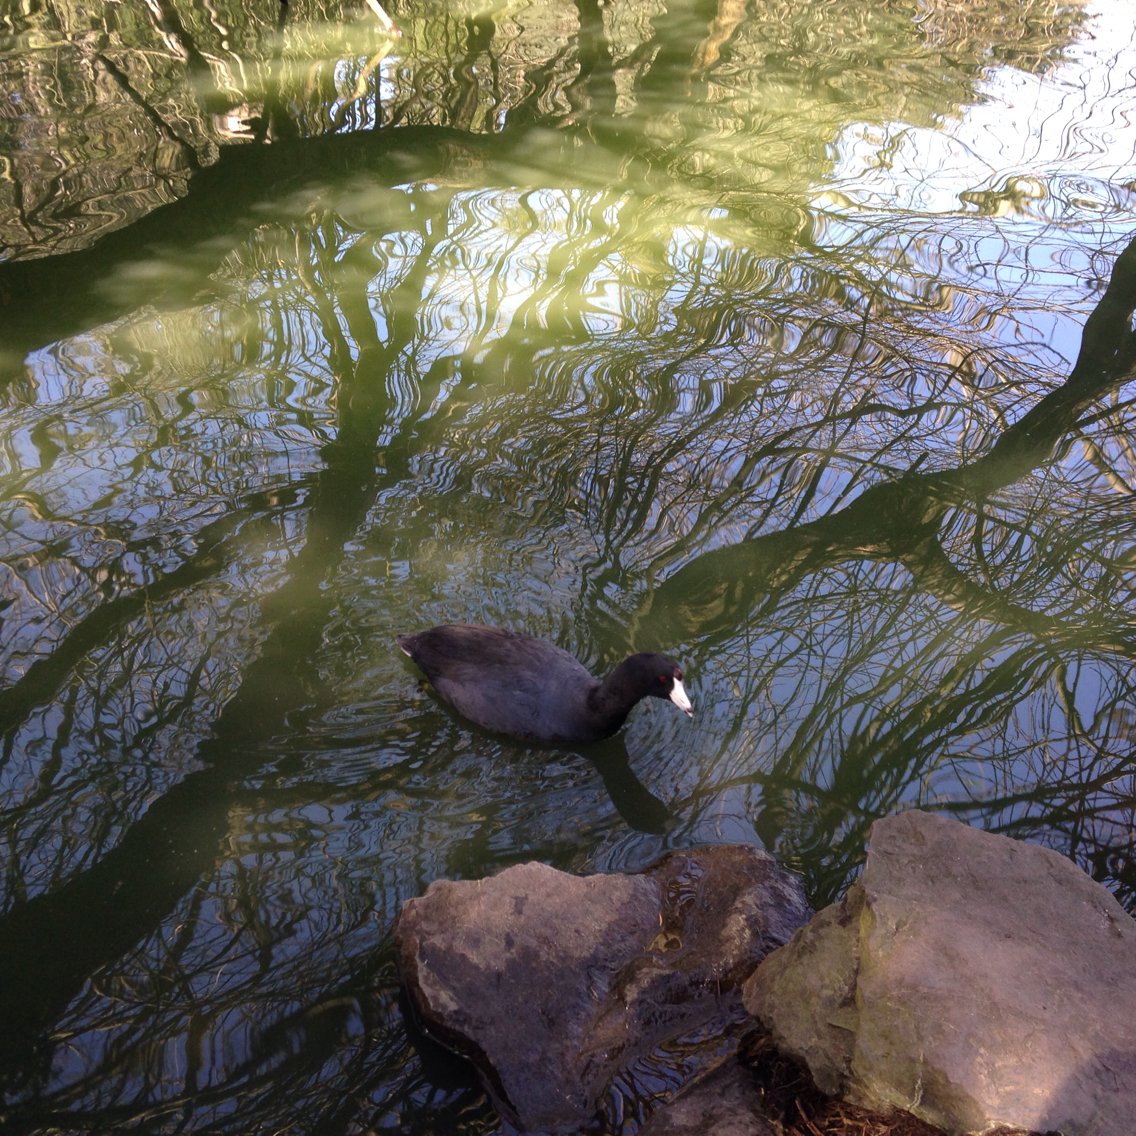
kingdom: Animalia
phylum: Chordata
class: Aves
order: Gruiformes
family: Rallidae
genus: Fulica
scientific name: Fulica americana
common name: American coot
